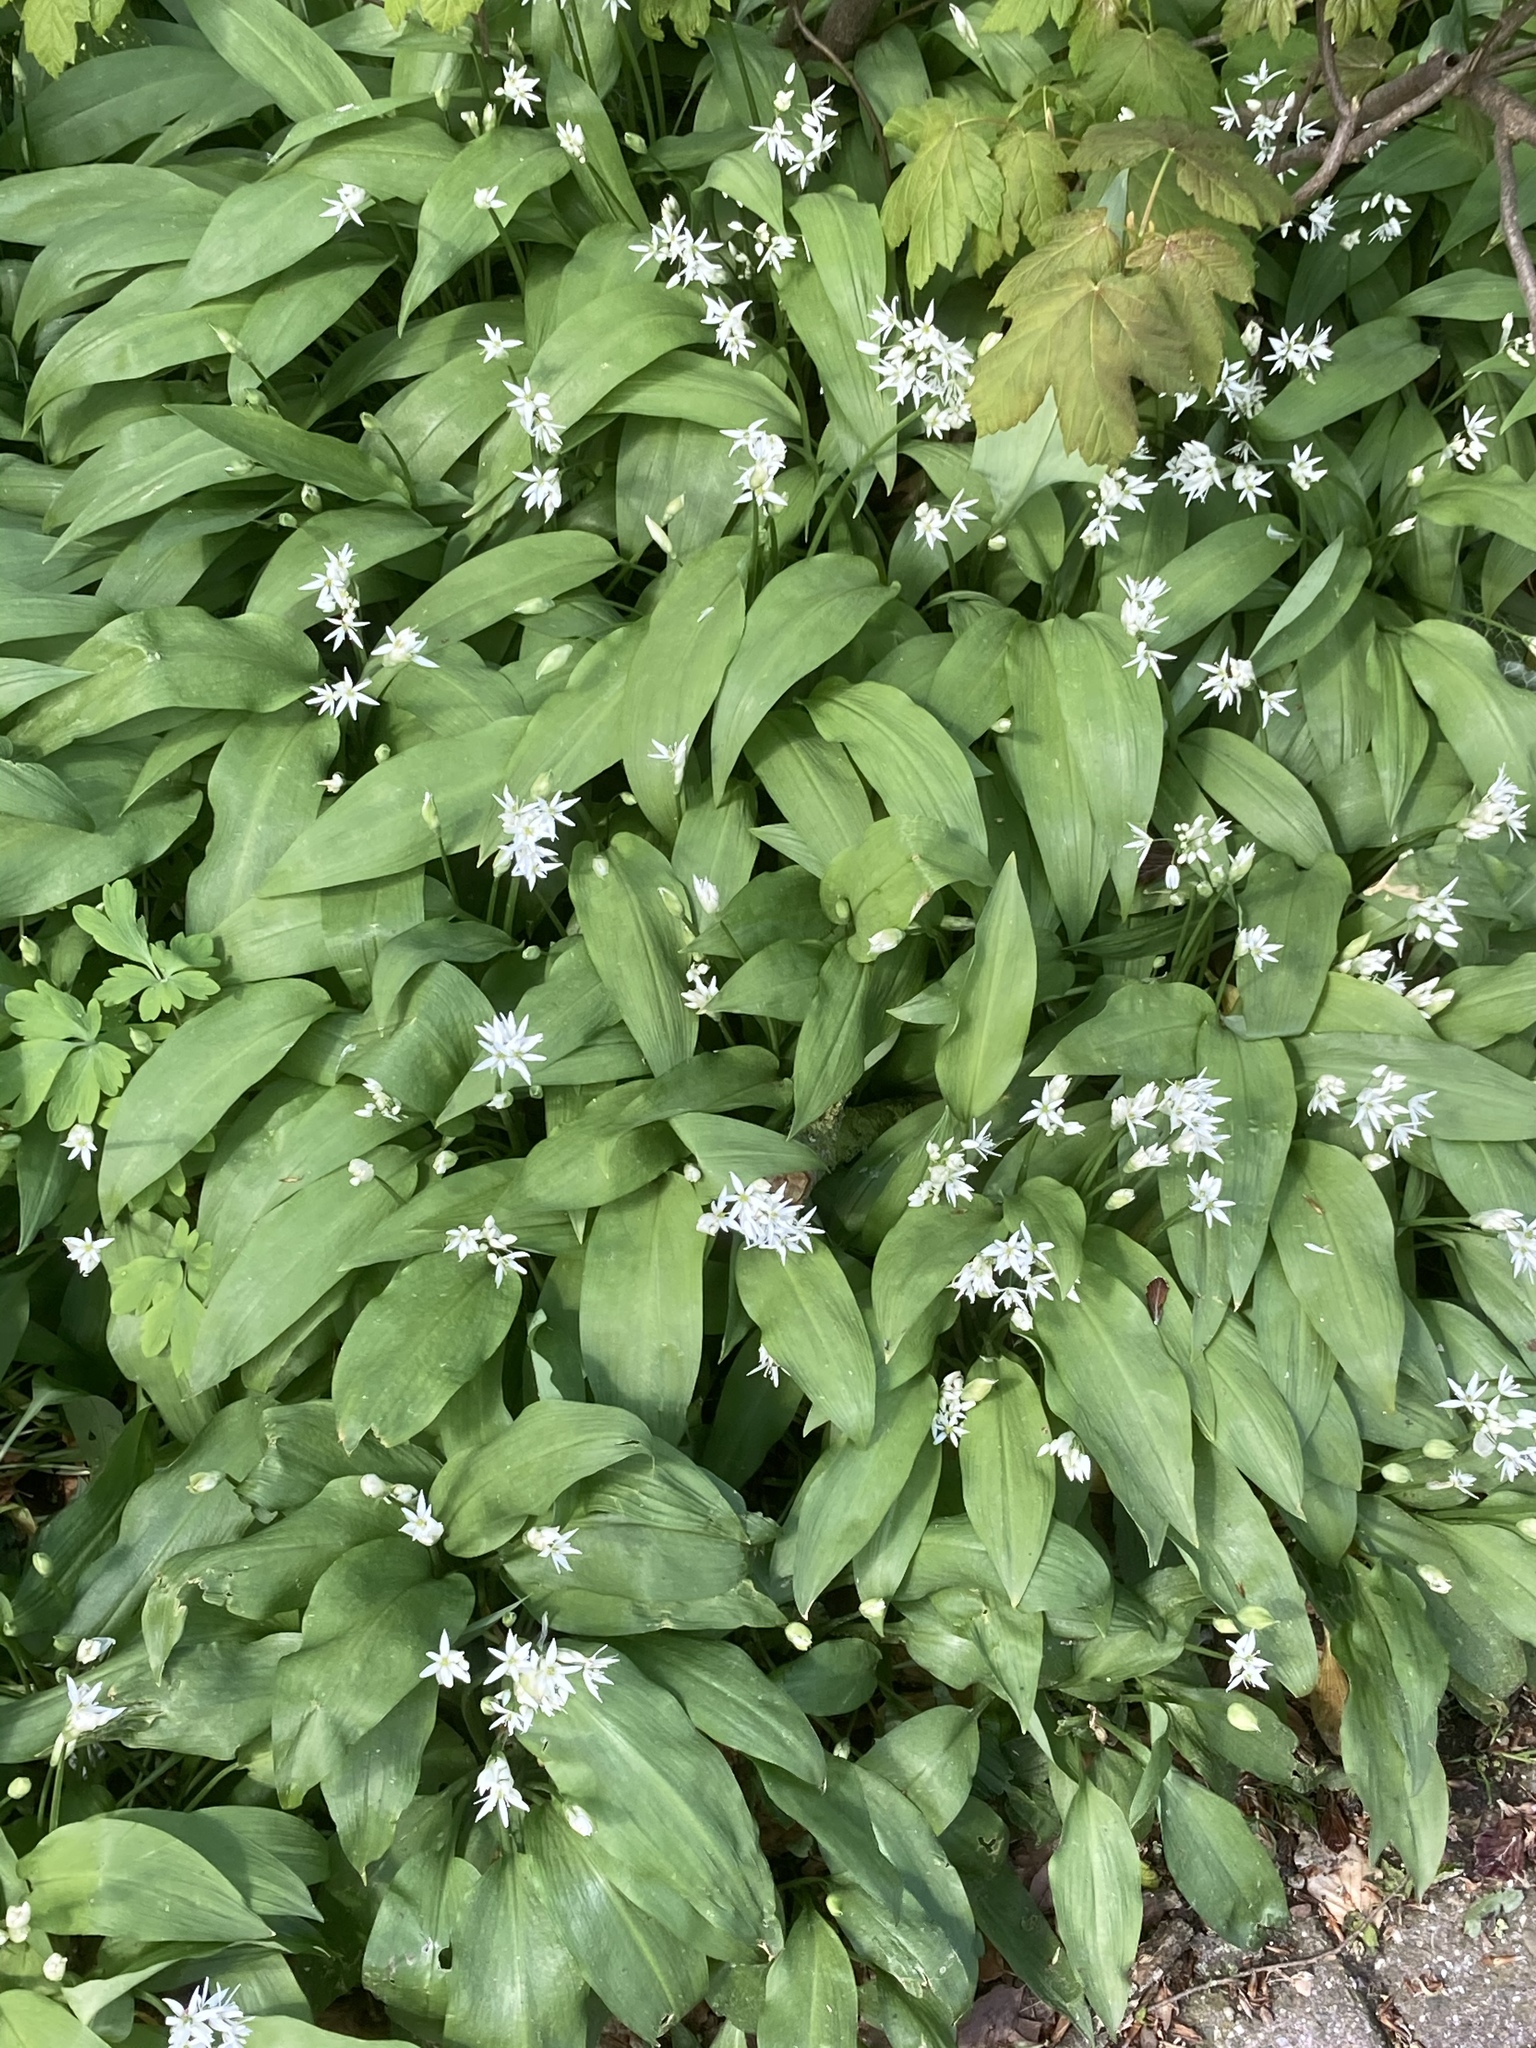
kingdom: Plantae
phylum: Tracheophyta
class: Liliopsida
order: Asparagales
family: Amaryllidaceae
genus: Allium
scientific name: Allium ursinum
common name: Ramsons
